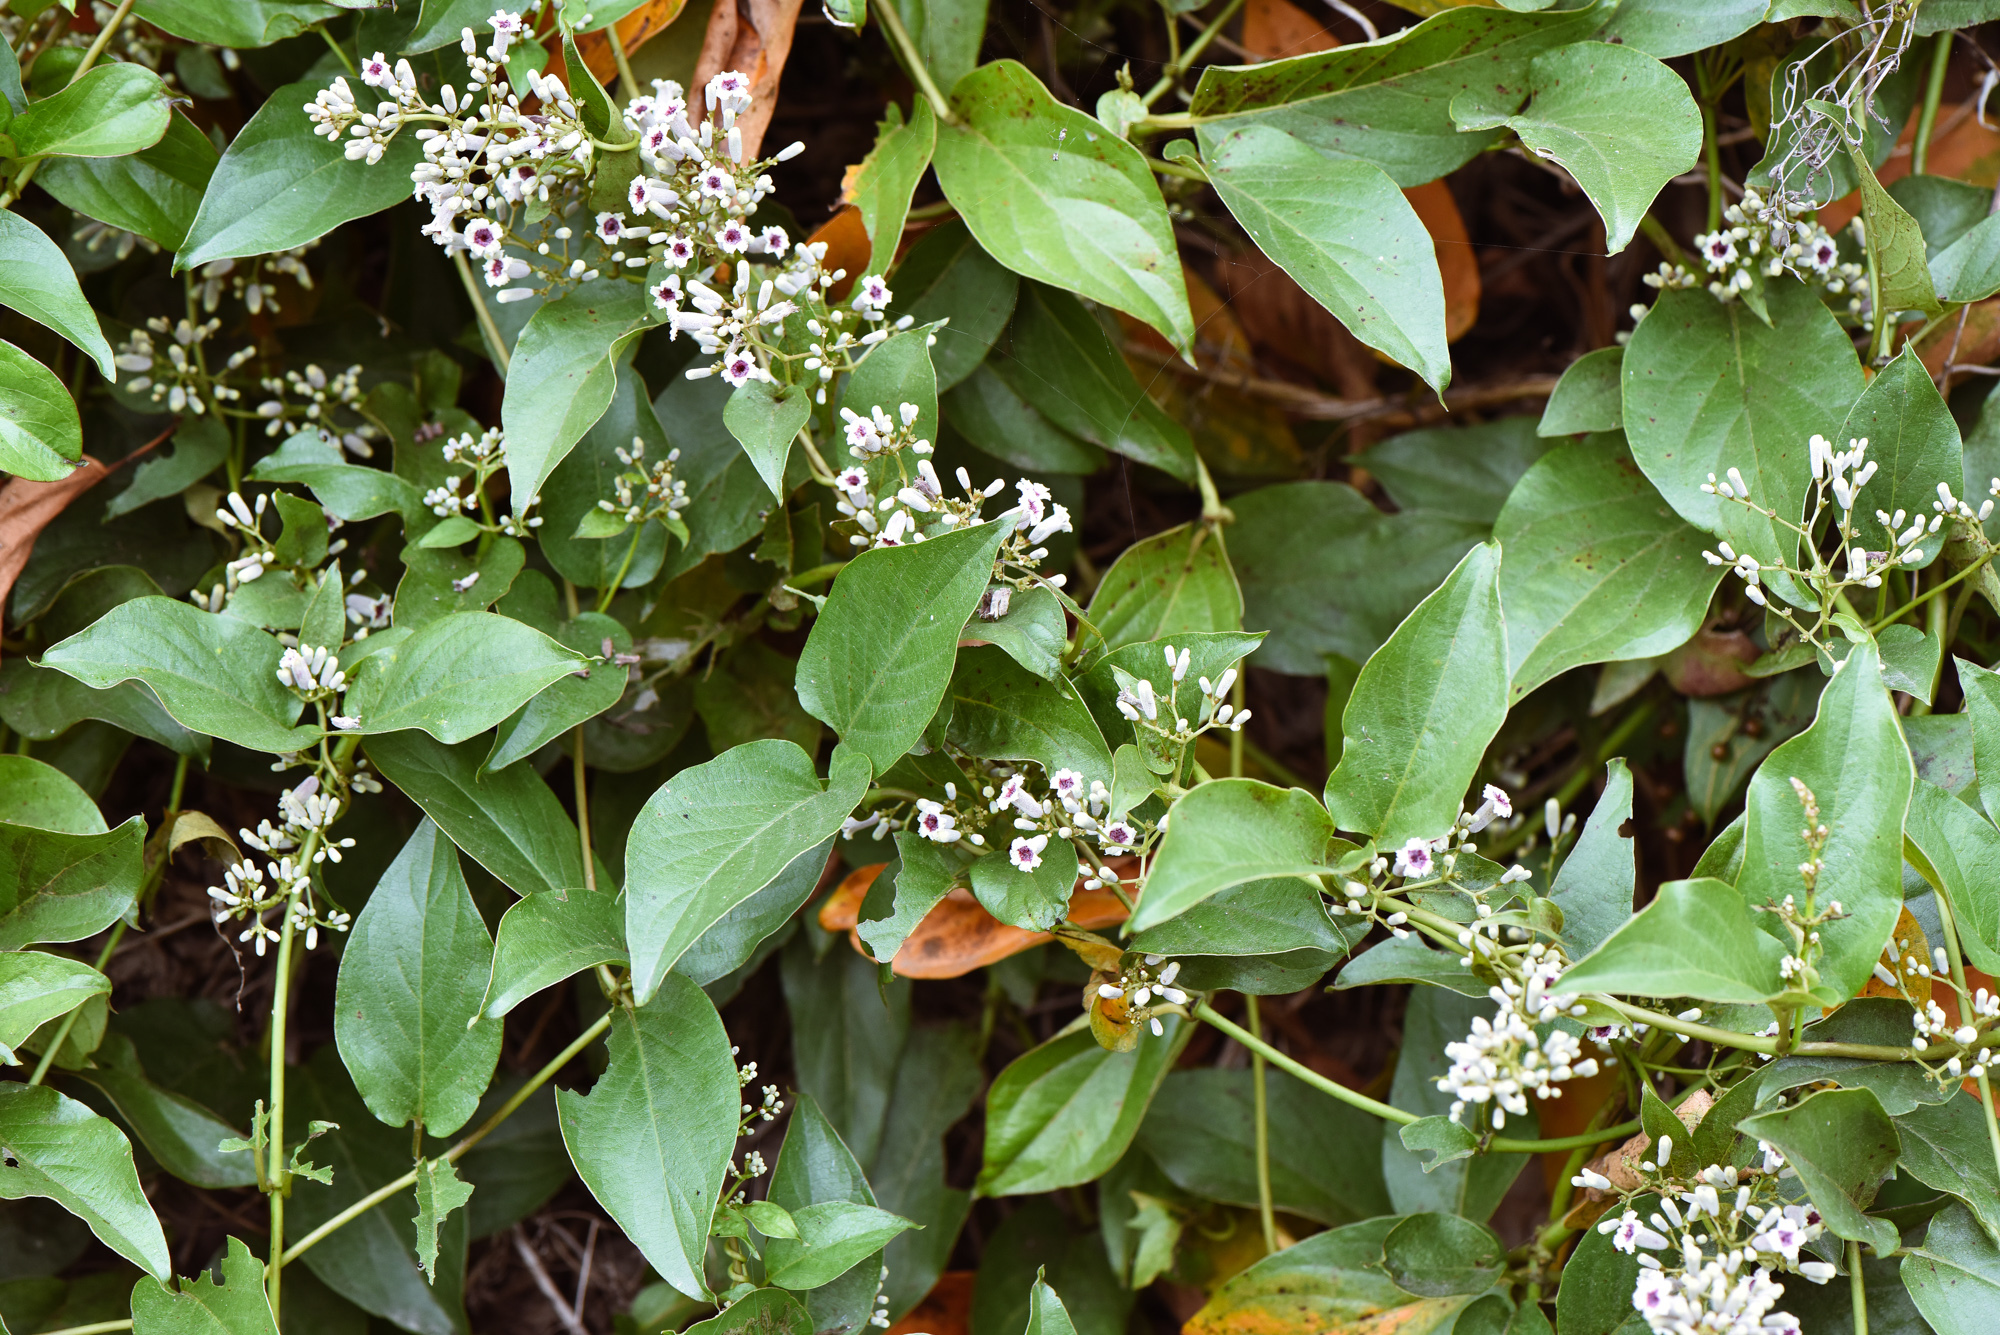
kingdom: Plantae
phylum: Tracheophyta
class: Magnoliopsida
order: Gentianales
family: Rubiaceae
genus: Paederia
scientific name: Paederia foetida
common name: Stinkvine
